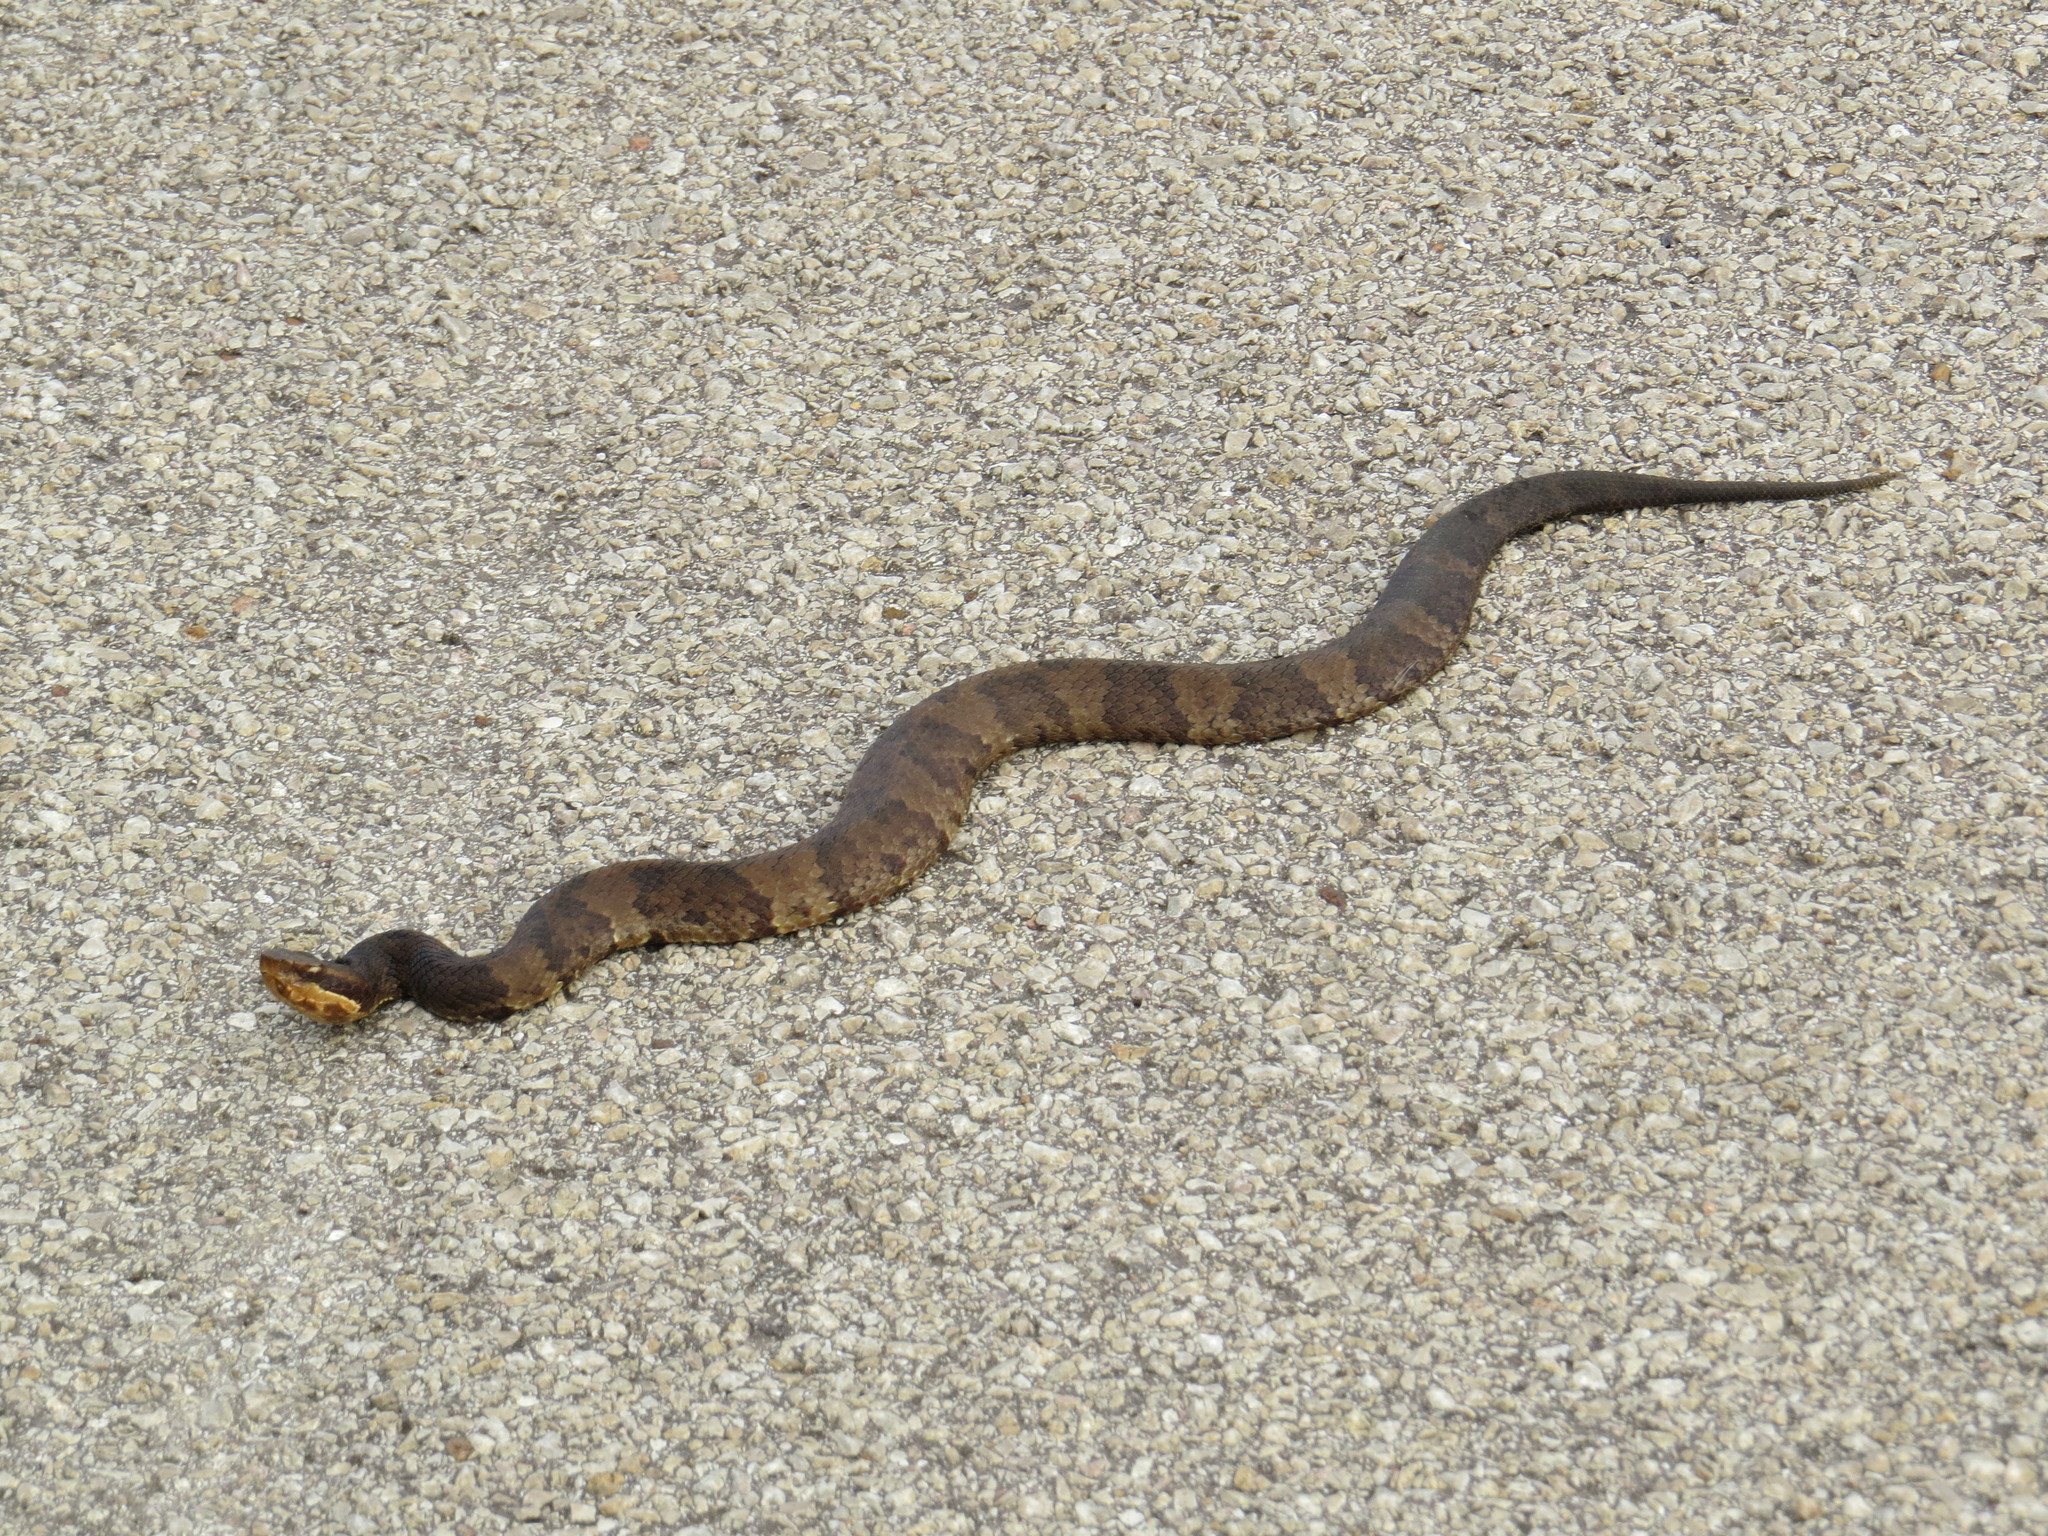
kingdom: Animalia
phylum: Chordata
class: Squamata
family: Viperidae
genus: Agkistrodon
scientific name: Agkistrodon piscivorus
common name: Cottonmouth
